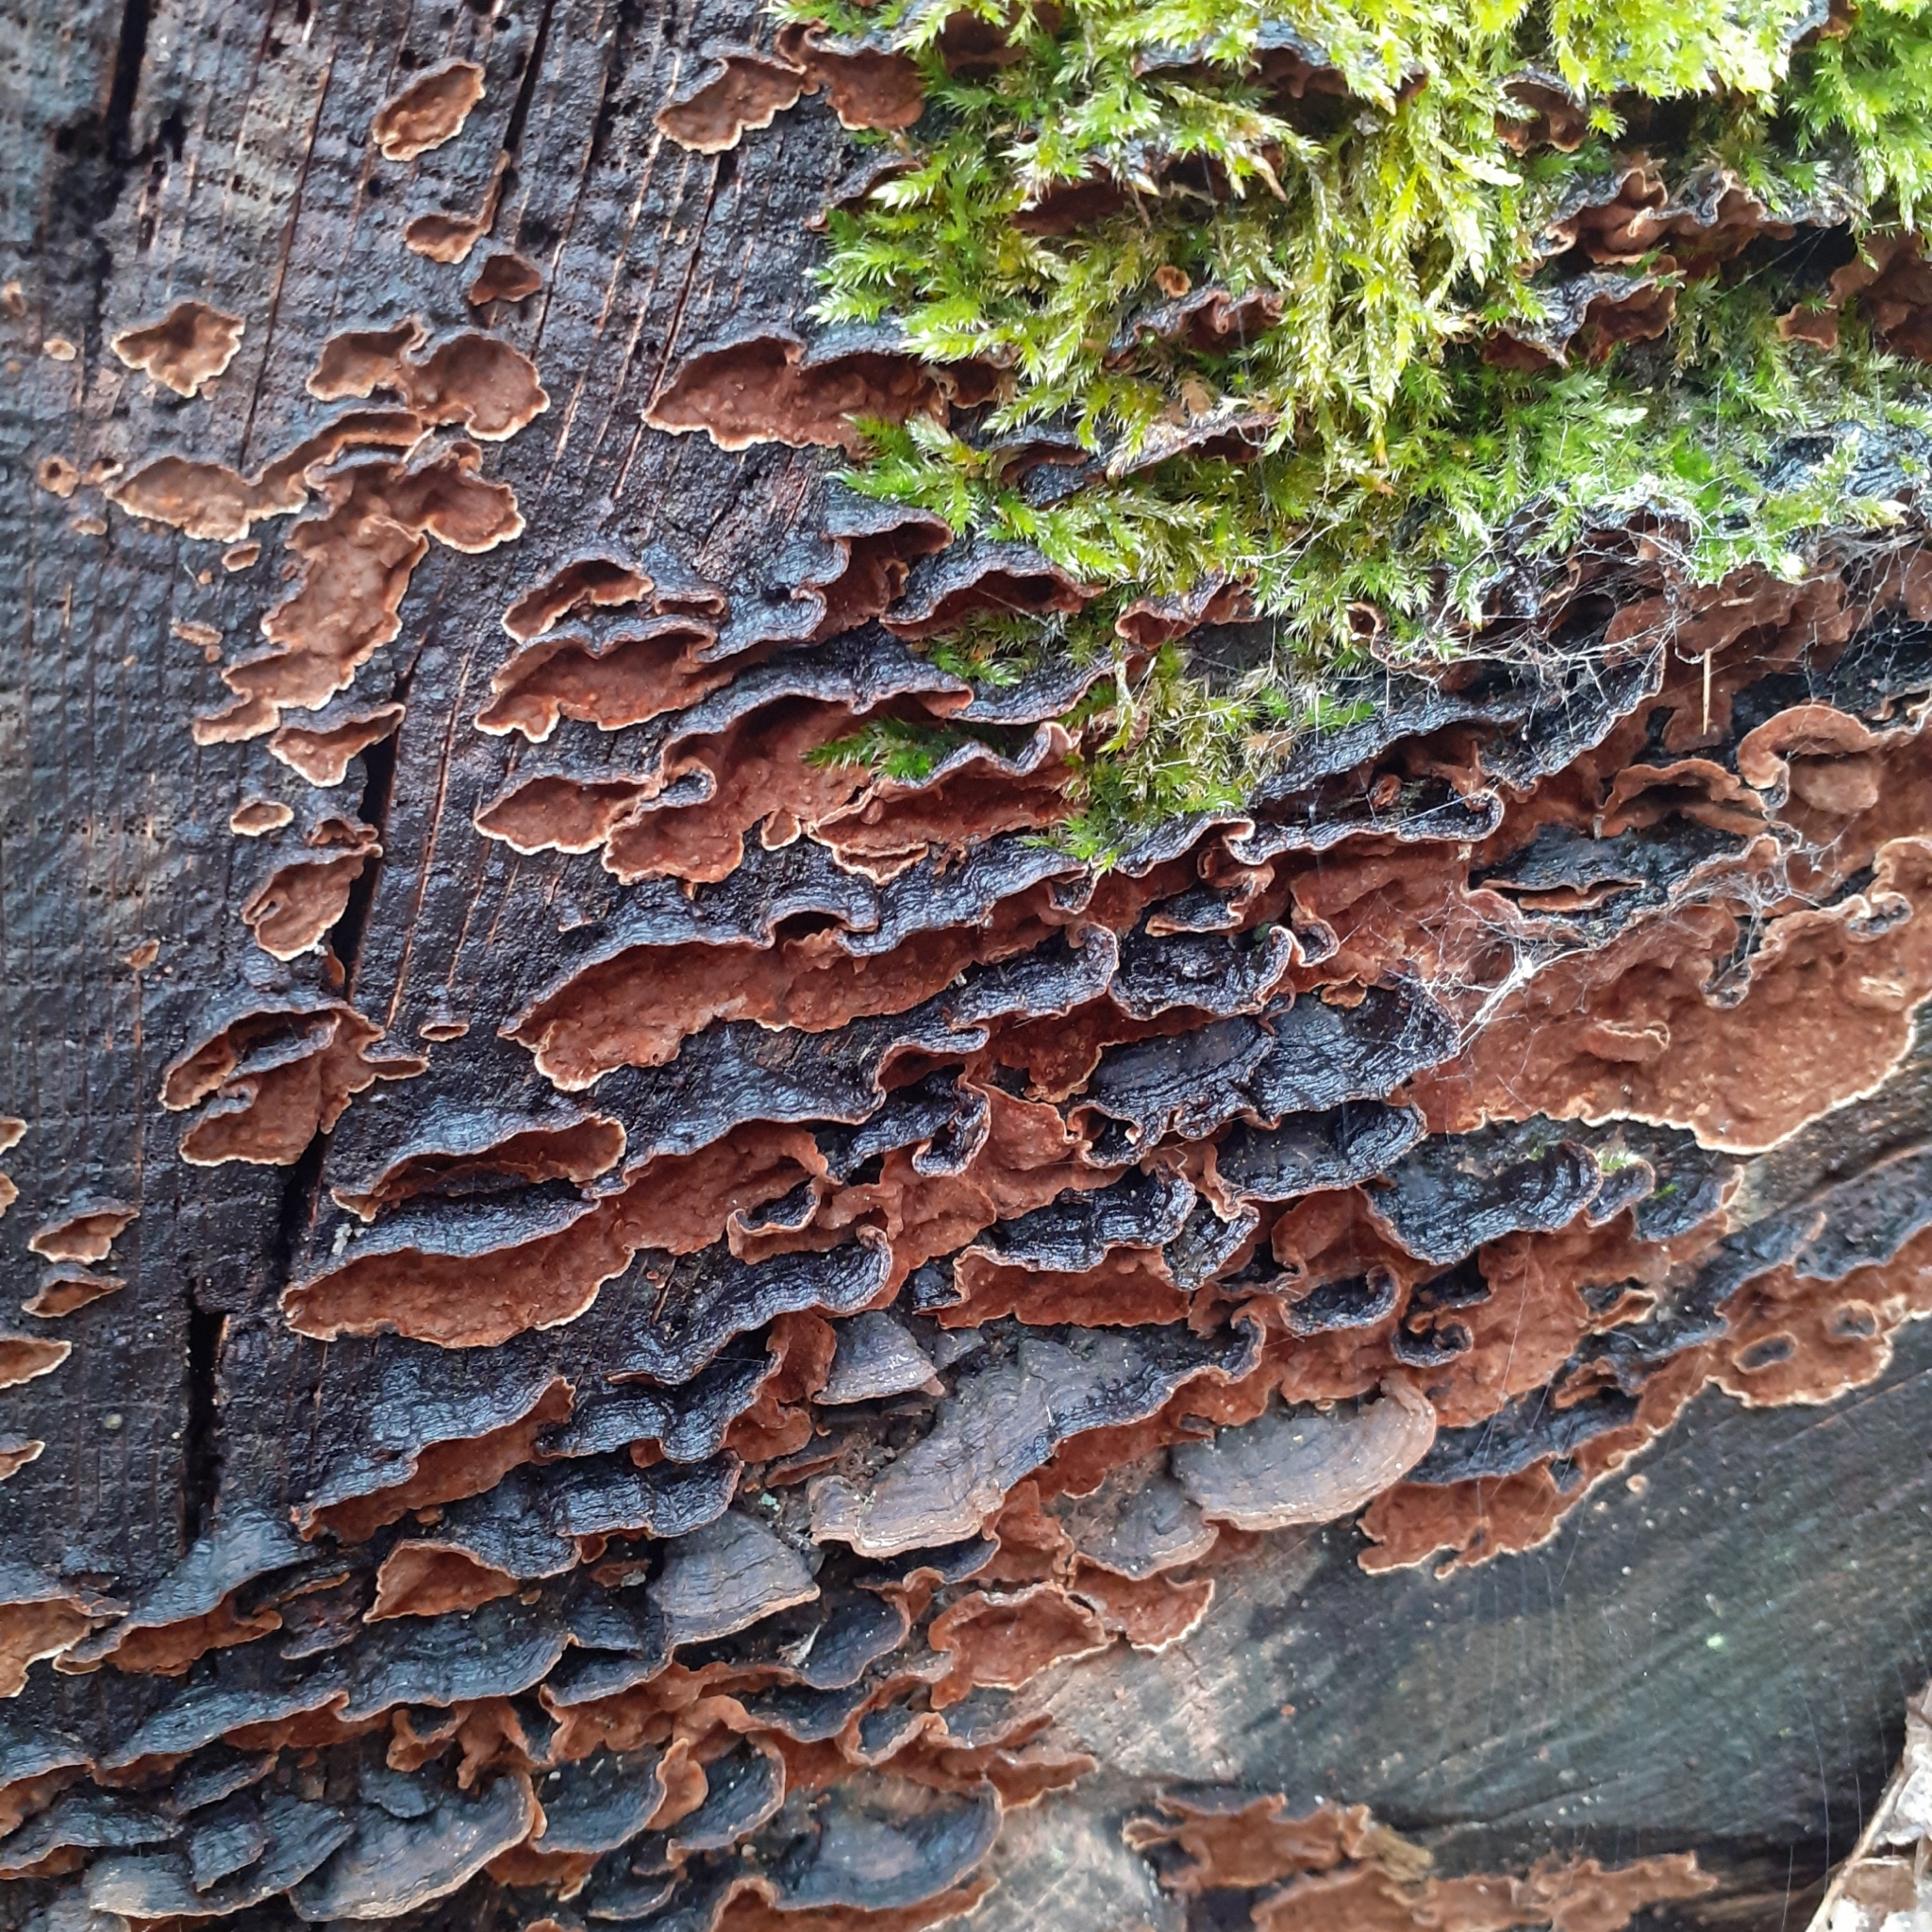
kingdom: Fungi
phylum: Basidiomycota
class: Agaricomycetes
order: Hymenochaetales
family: Hymenochaetaceae
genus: Hymenochaete
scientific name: Hymenochaete rubiginosa
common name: Oak curtain crust
